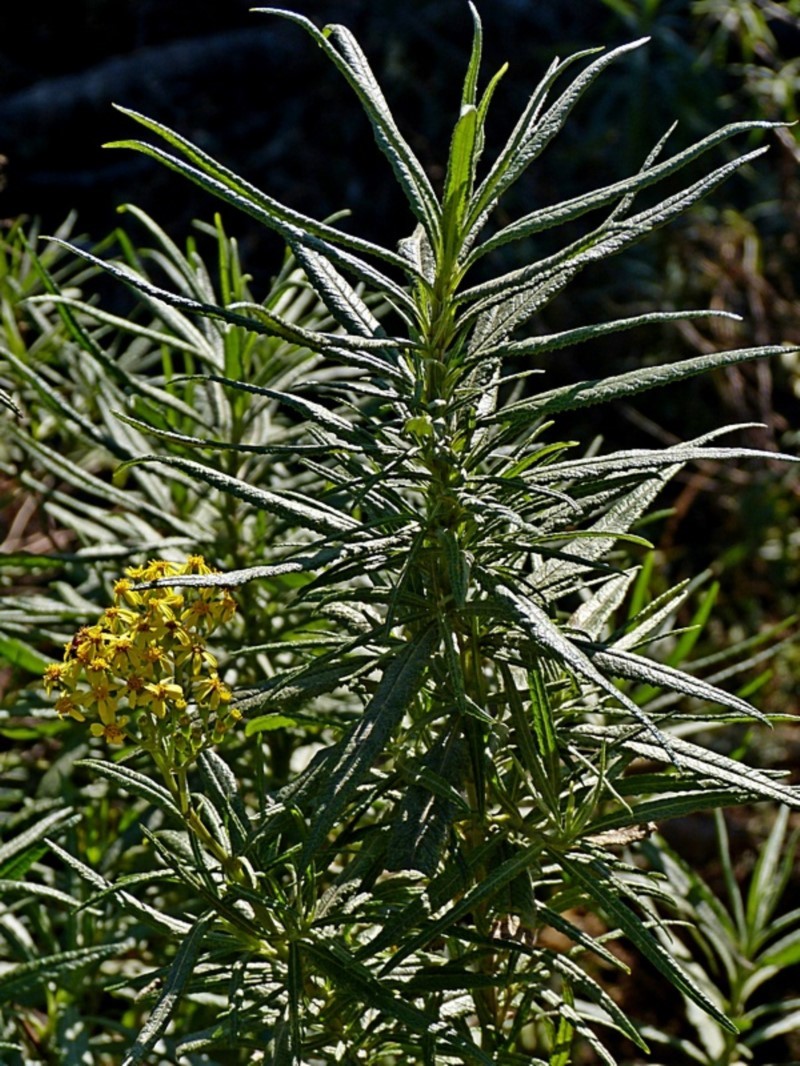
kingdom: Plantae
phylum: Tracheophyta
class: Magnoliopsida
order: Asterales
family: Asteraceae
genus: Senecio
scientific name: Senecio linearifolius
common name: Fireweed groundsel
